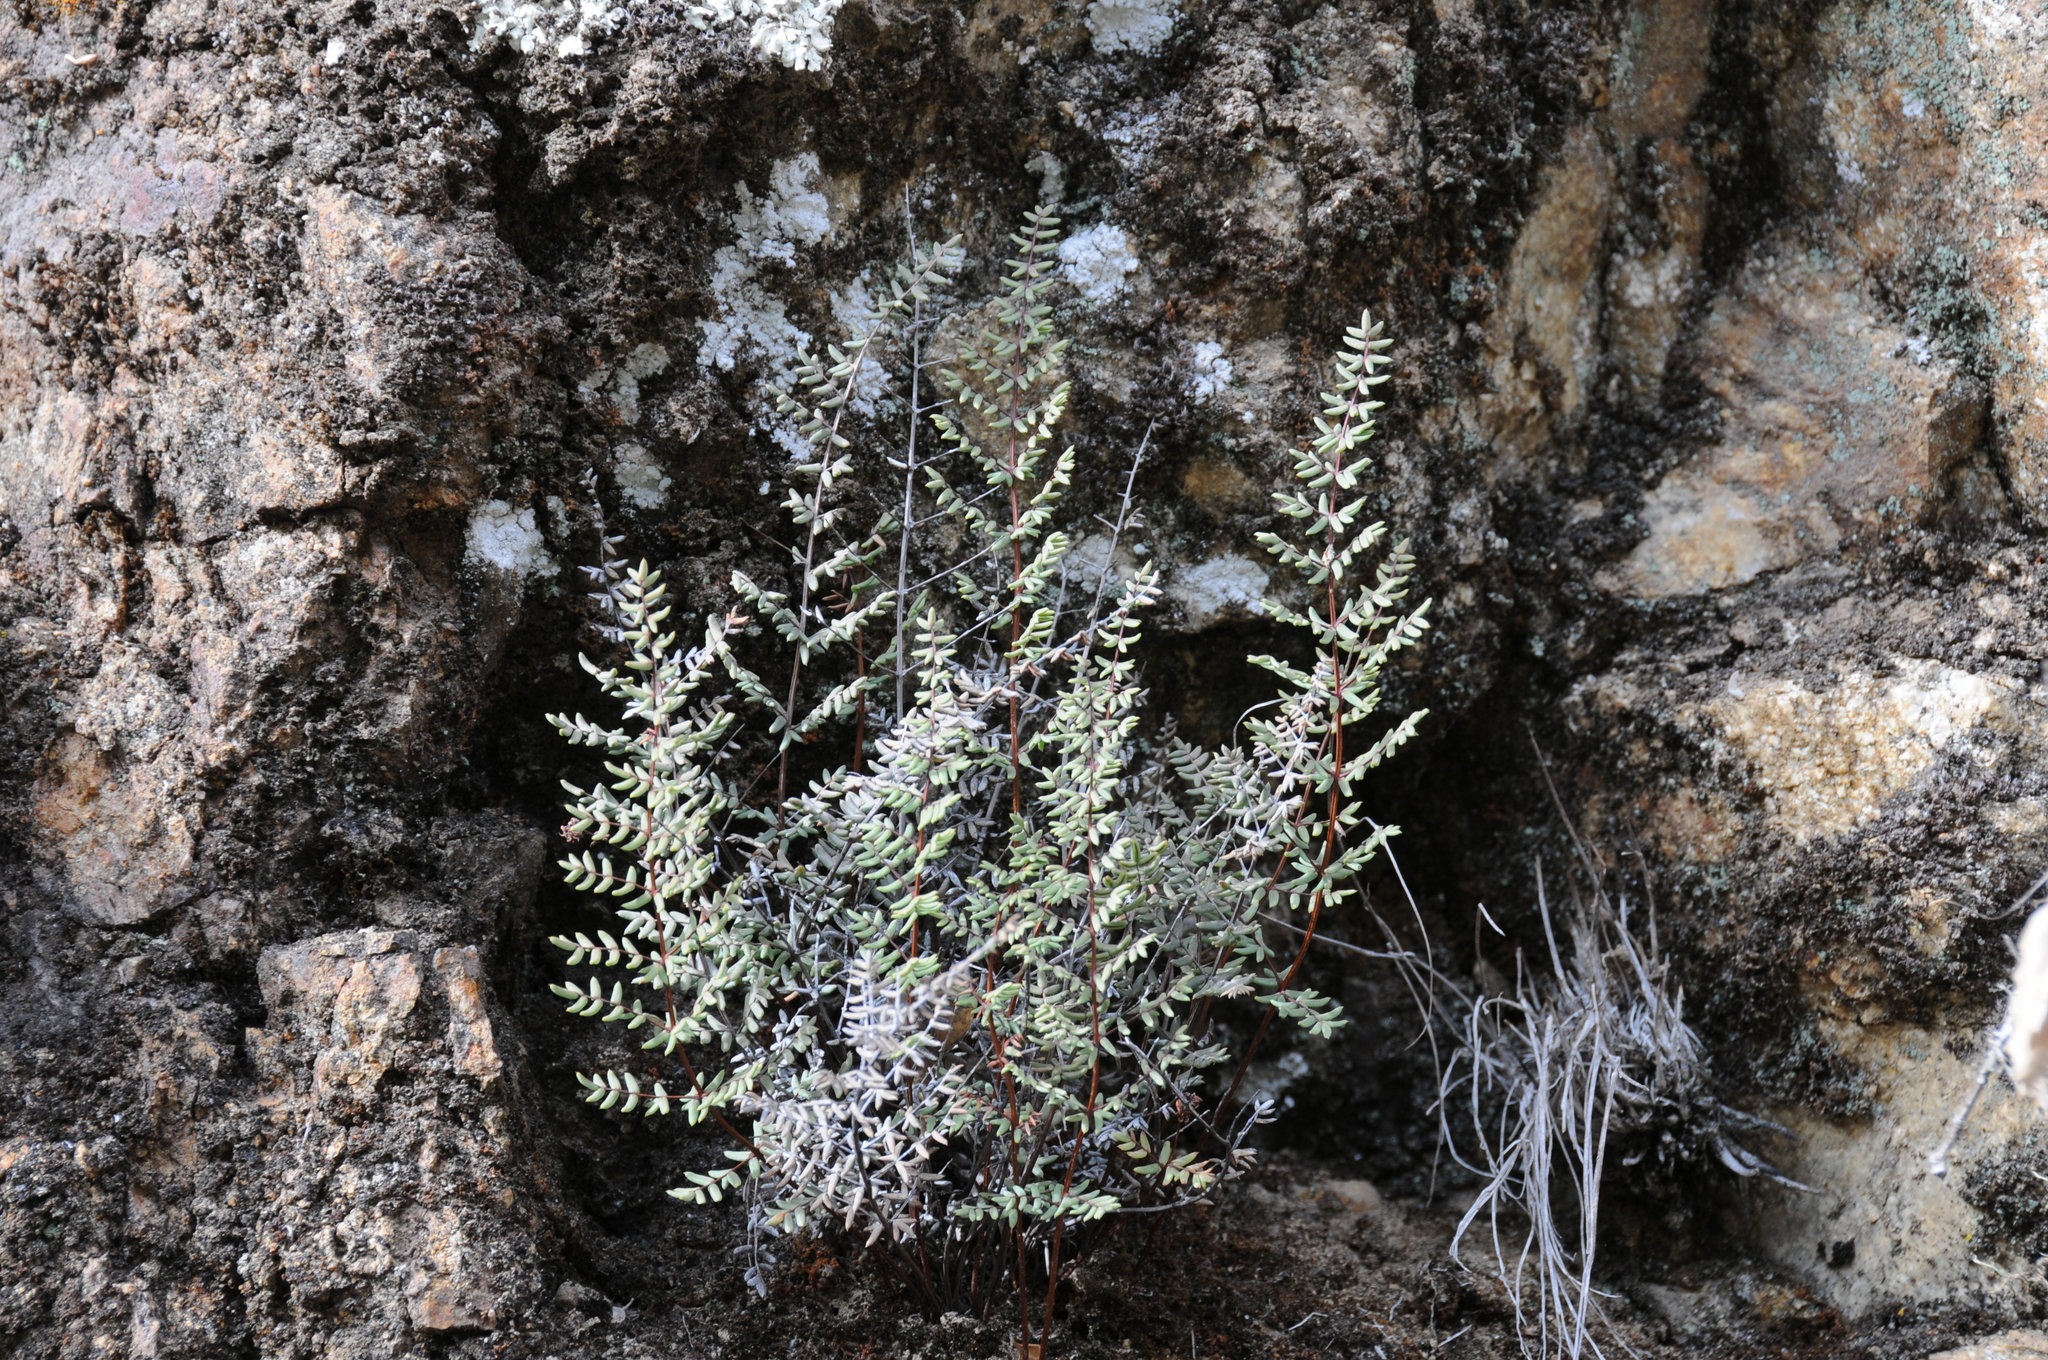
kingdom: Plantae
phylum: Tracheophyta
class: Polypodiopsida
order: Polypodiales
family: Pteridaceae
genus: Pellaea
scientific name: Pellaea mucronata
